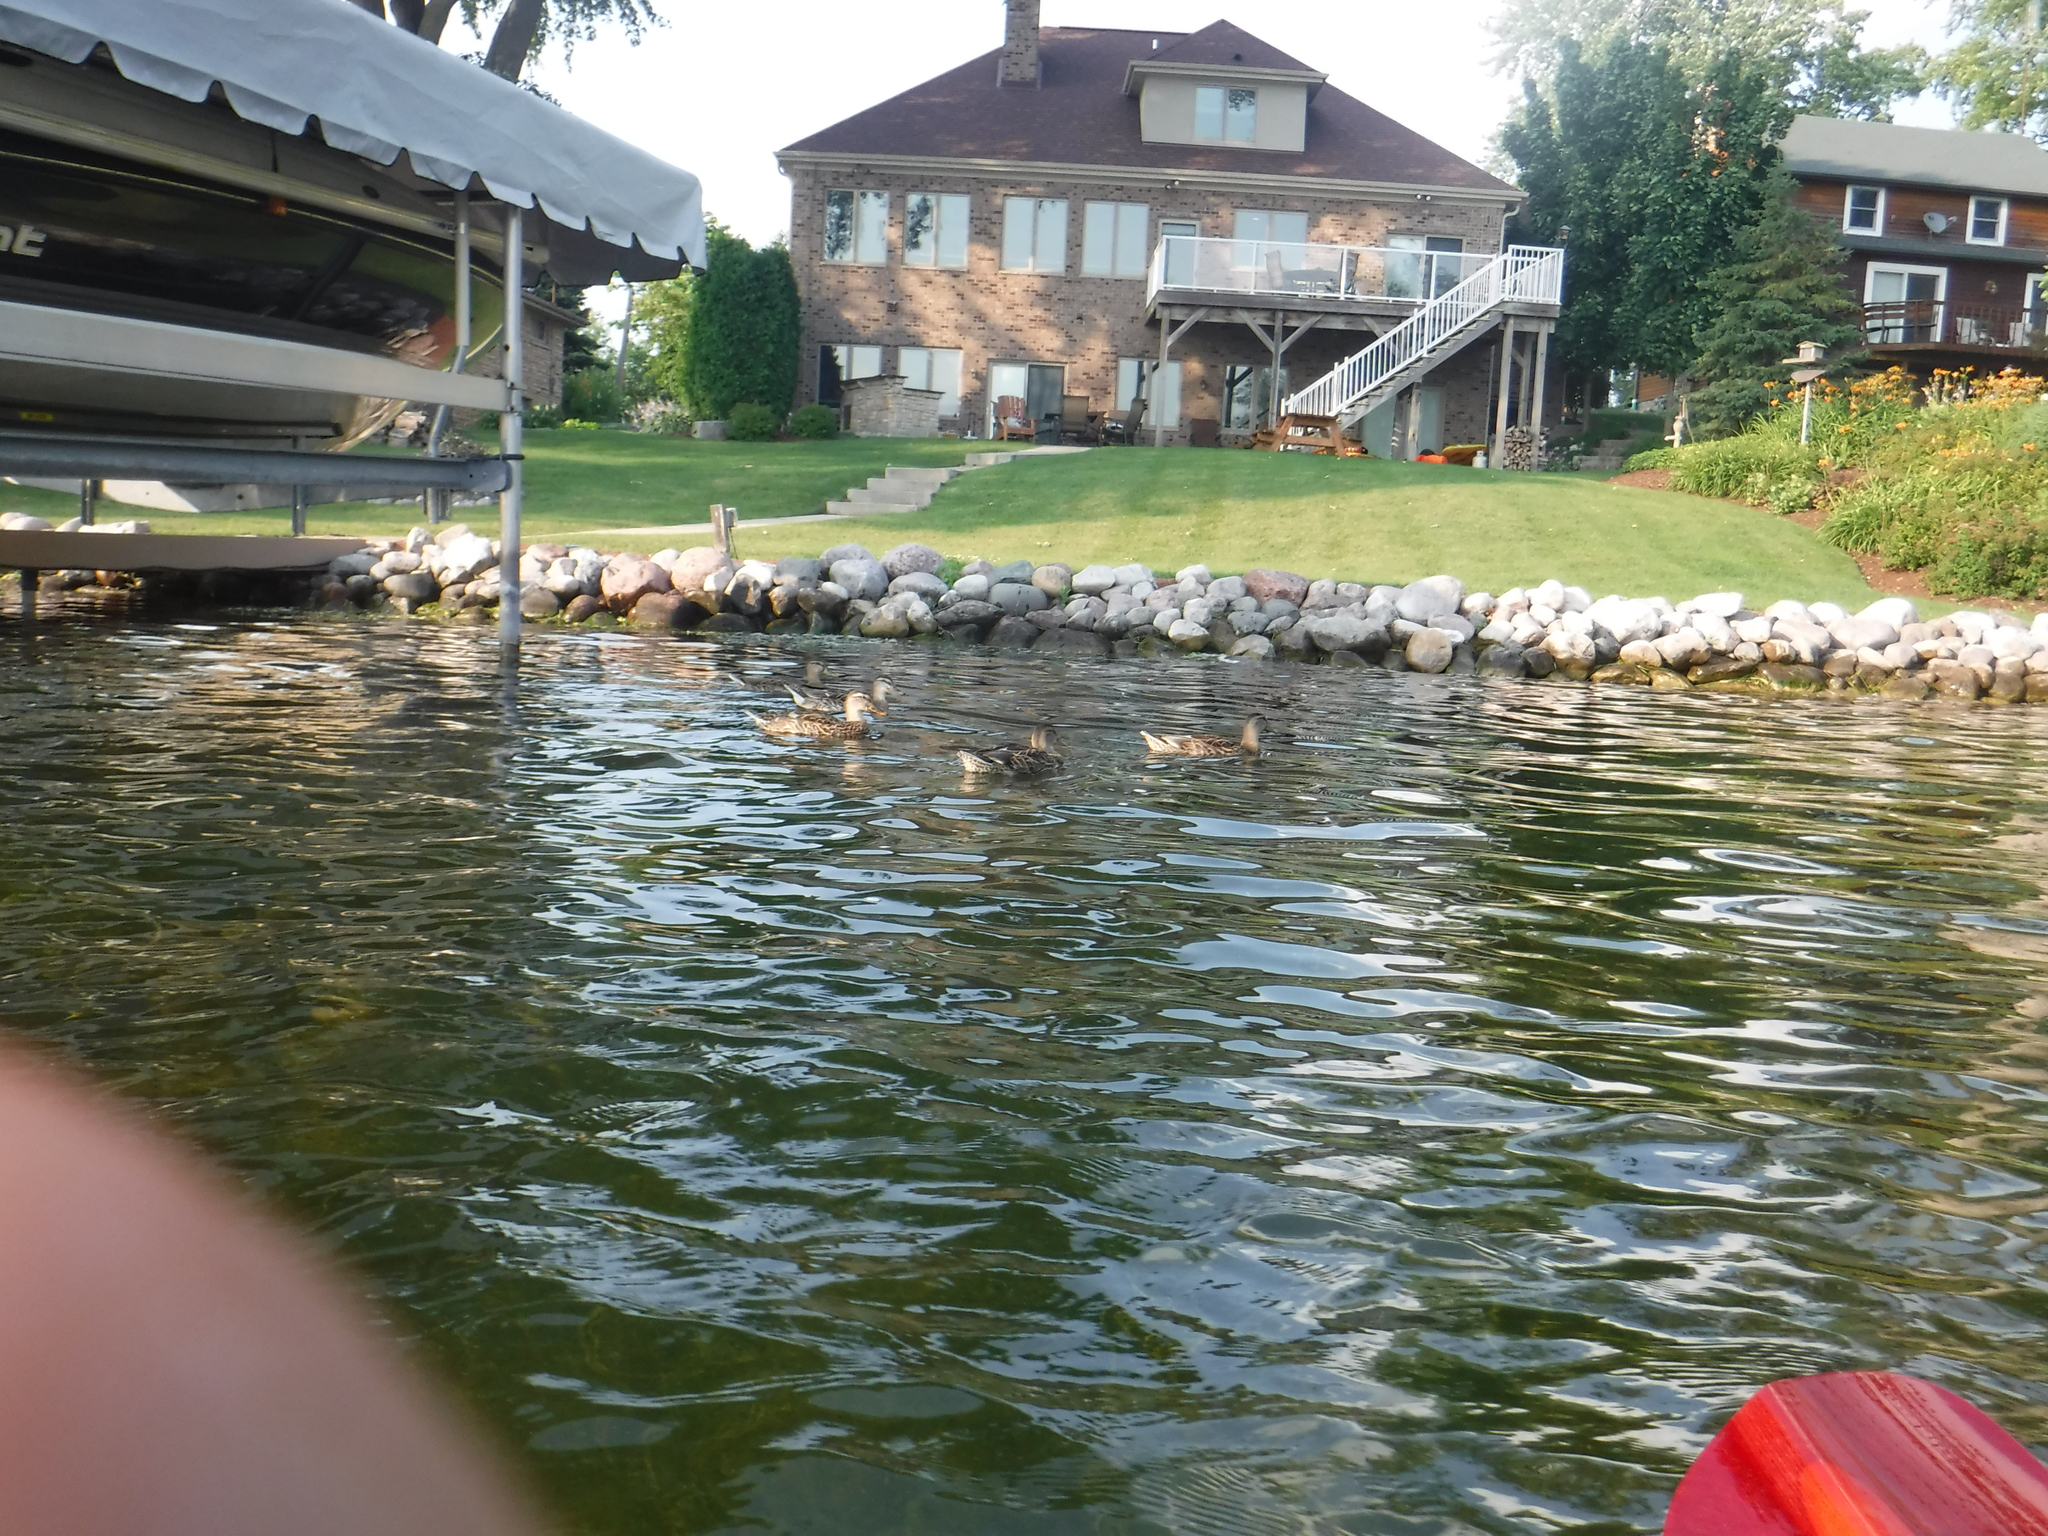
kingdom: Animalia
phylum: Chordata
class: Aves
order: Anseriformes
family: Anatidae
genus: Anas
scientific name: Anas platyrhynchos
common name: Mallard
